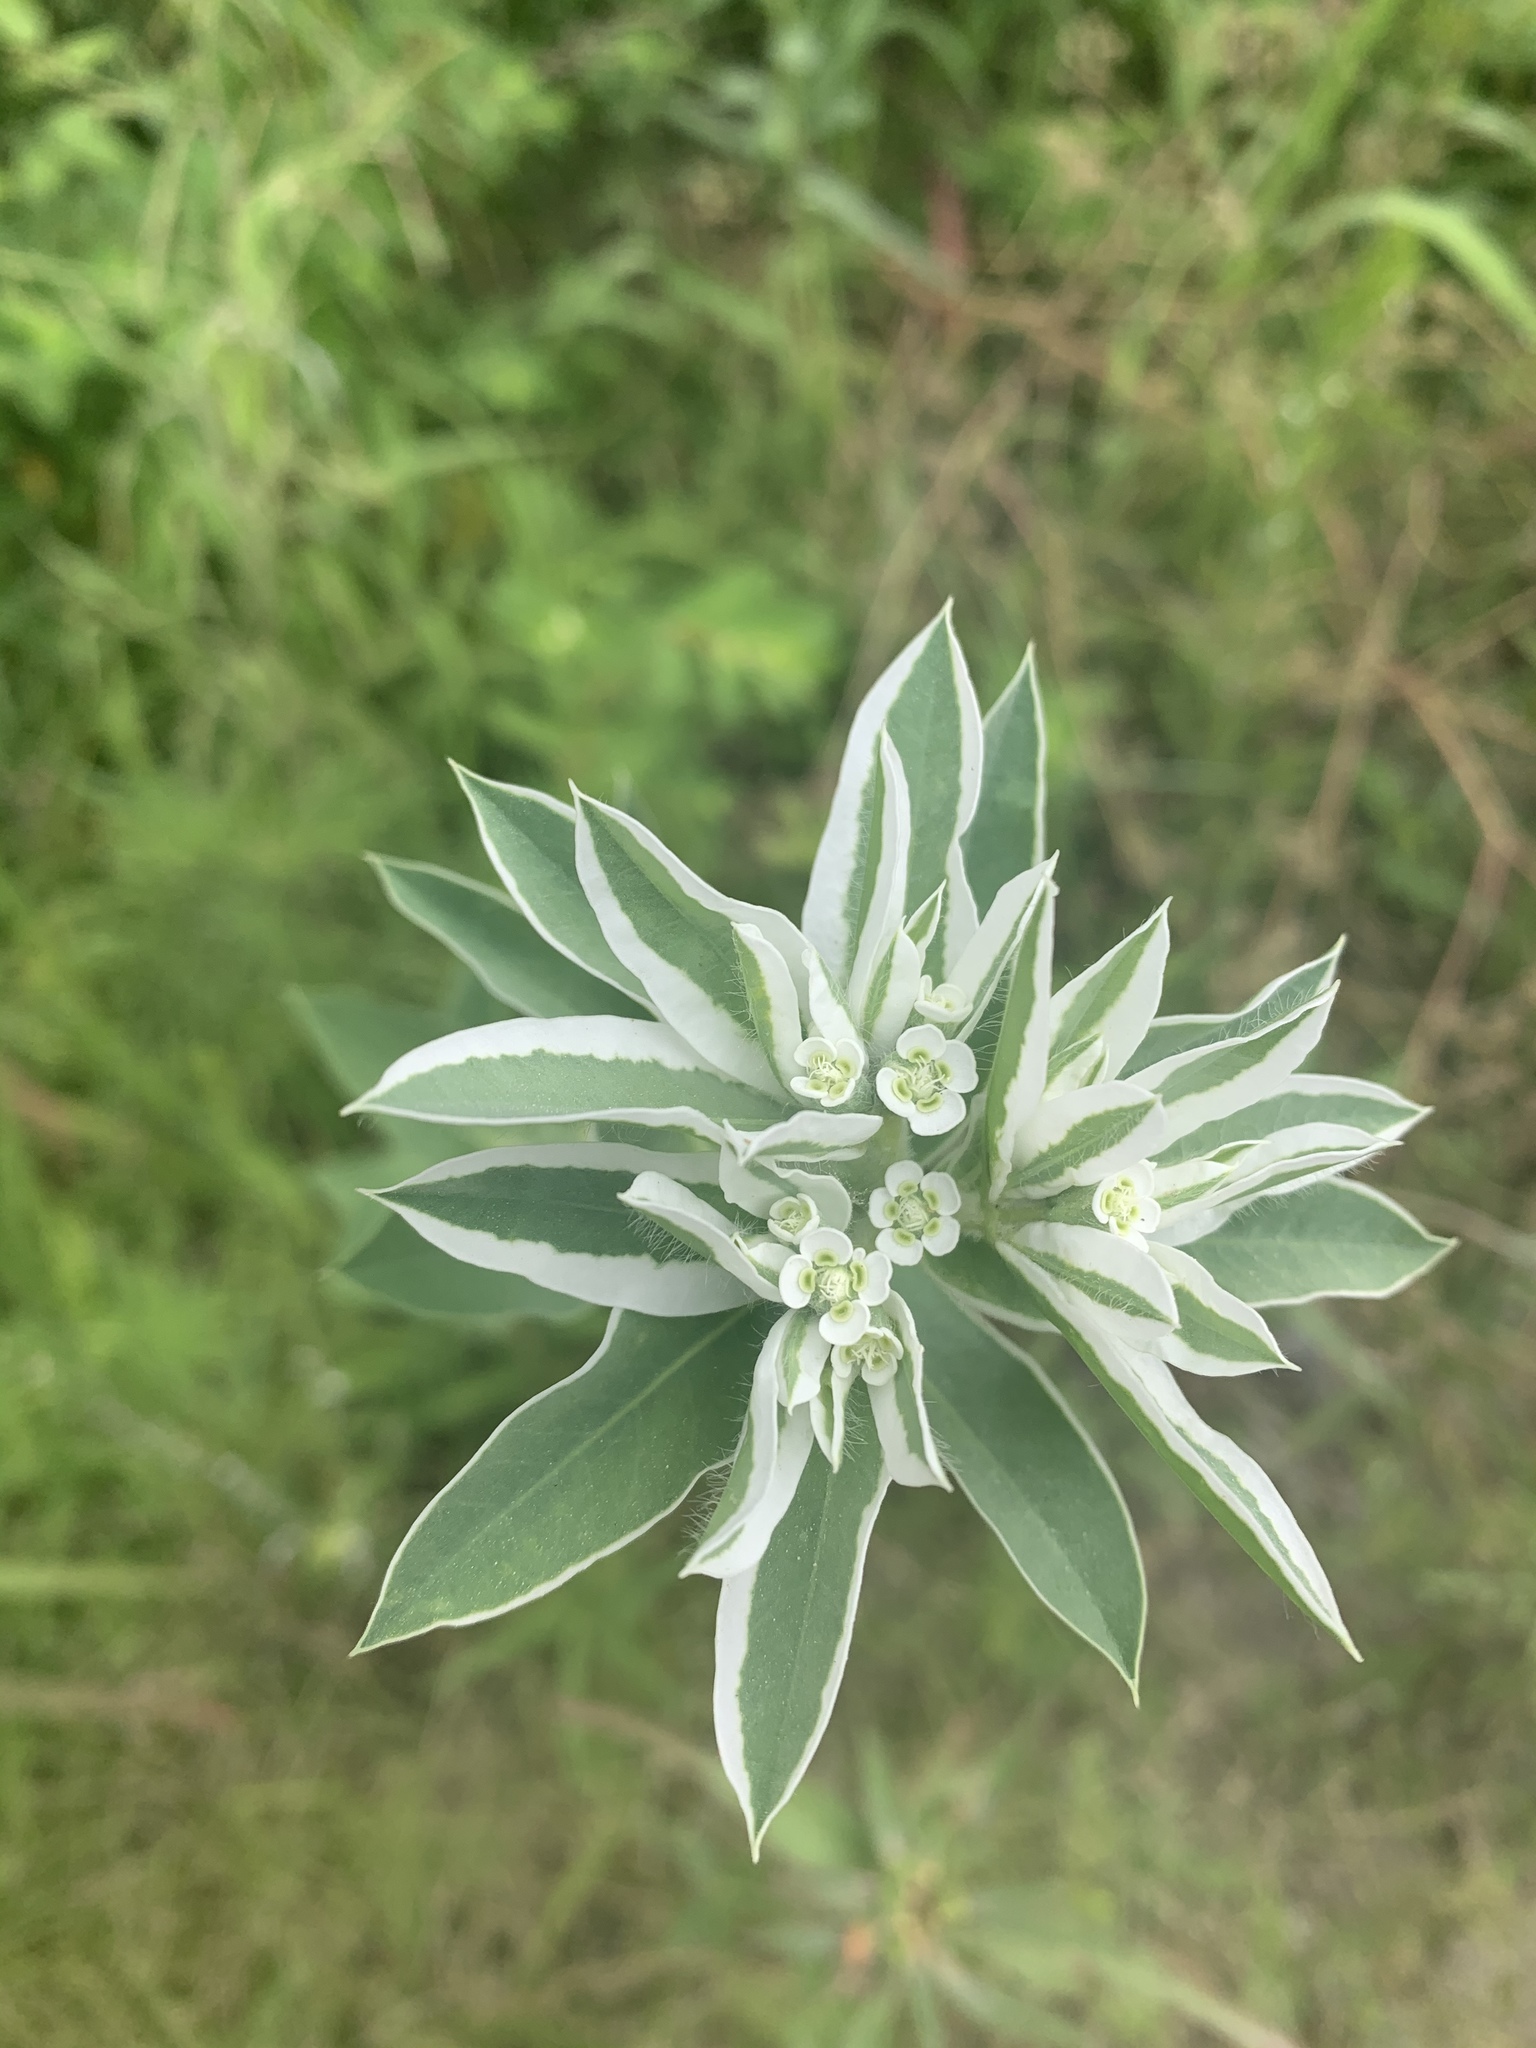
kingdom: Plantae
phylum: Tracheophyta
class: Magnoliopsida
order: Malpighiales
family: Euphorbiaceae
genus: Euphorbia
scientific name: Euphorbia marginata
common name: Ghostweed
